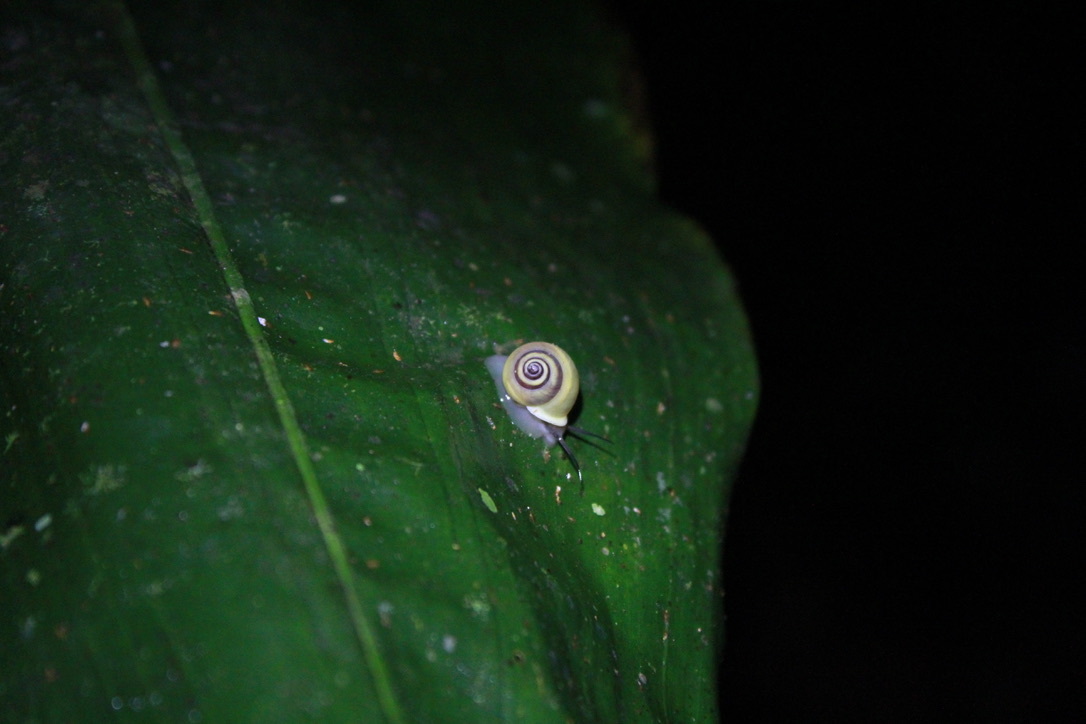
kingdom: Animalia
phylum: Mollusca
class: Gastropoda
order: Cycloneritida
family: Helicinidae
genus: Helicina
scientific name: Helicina nemoralis
